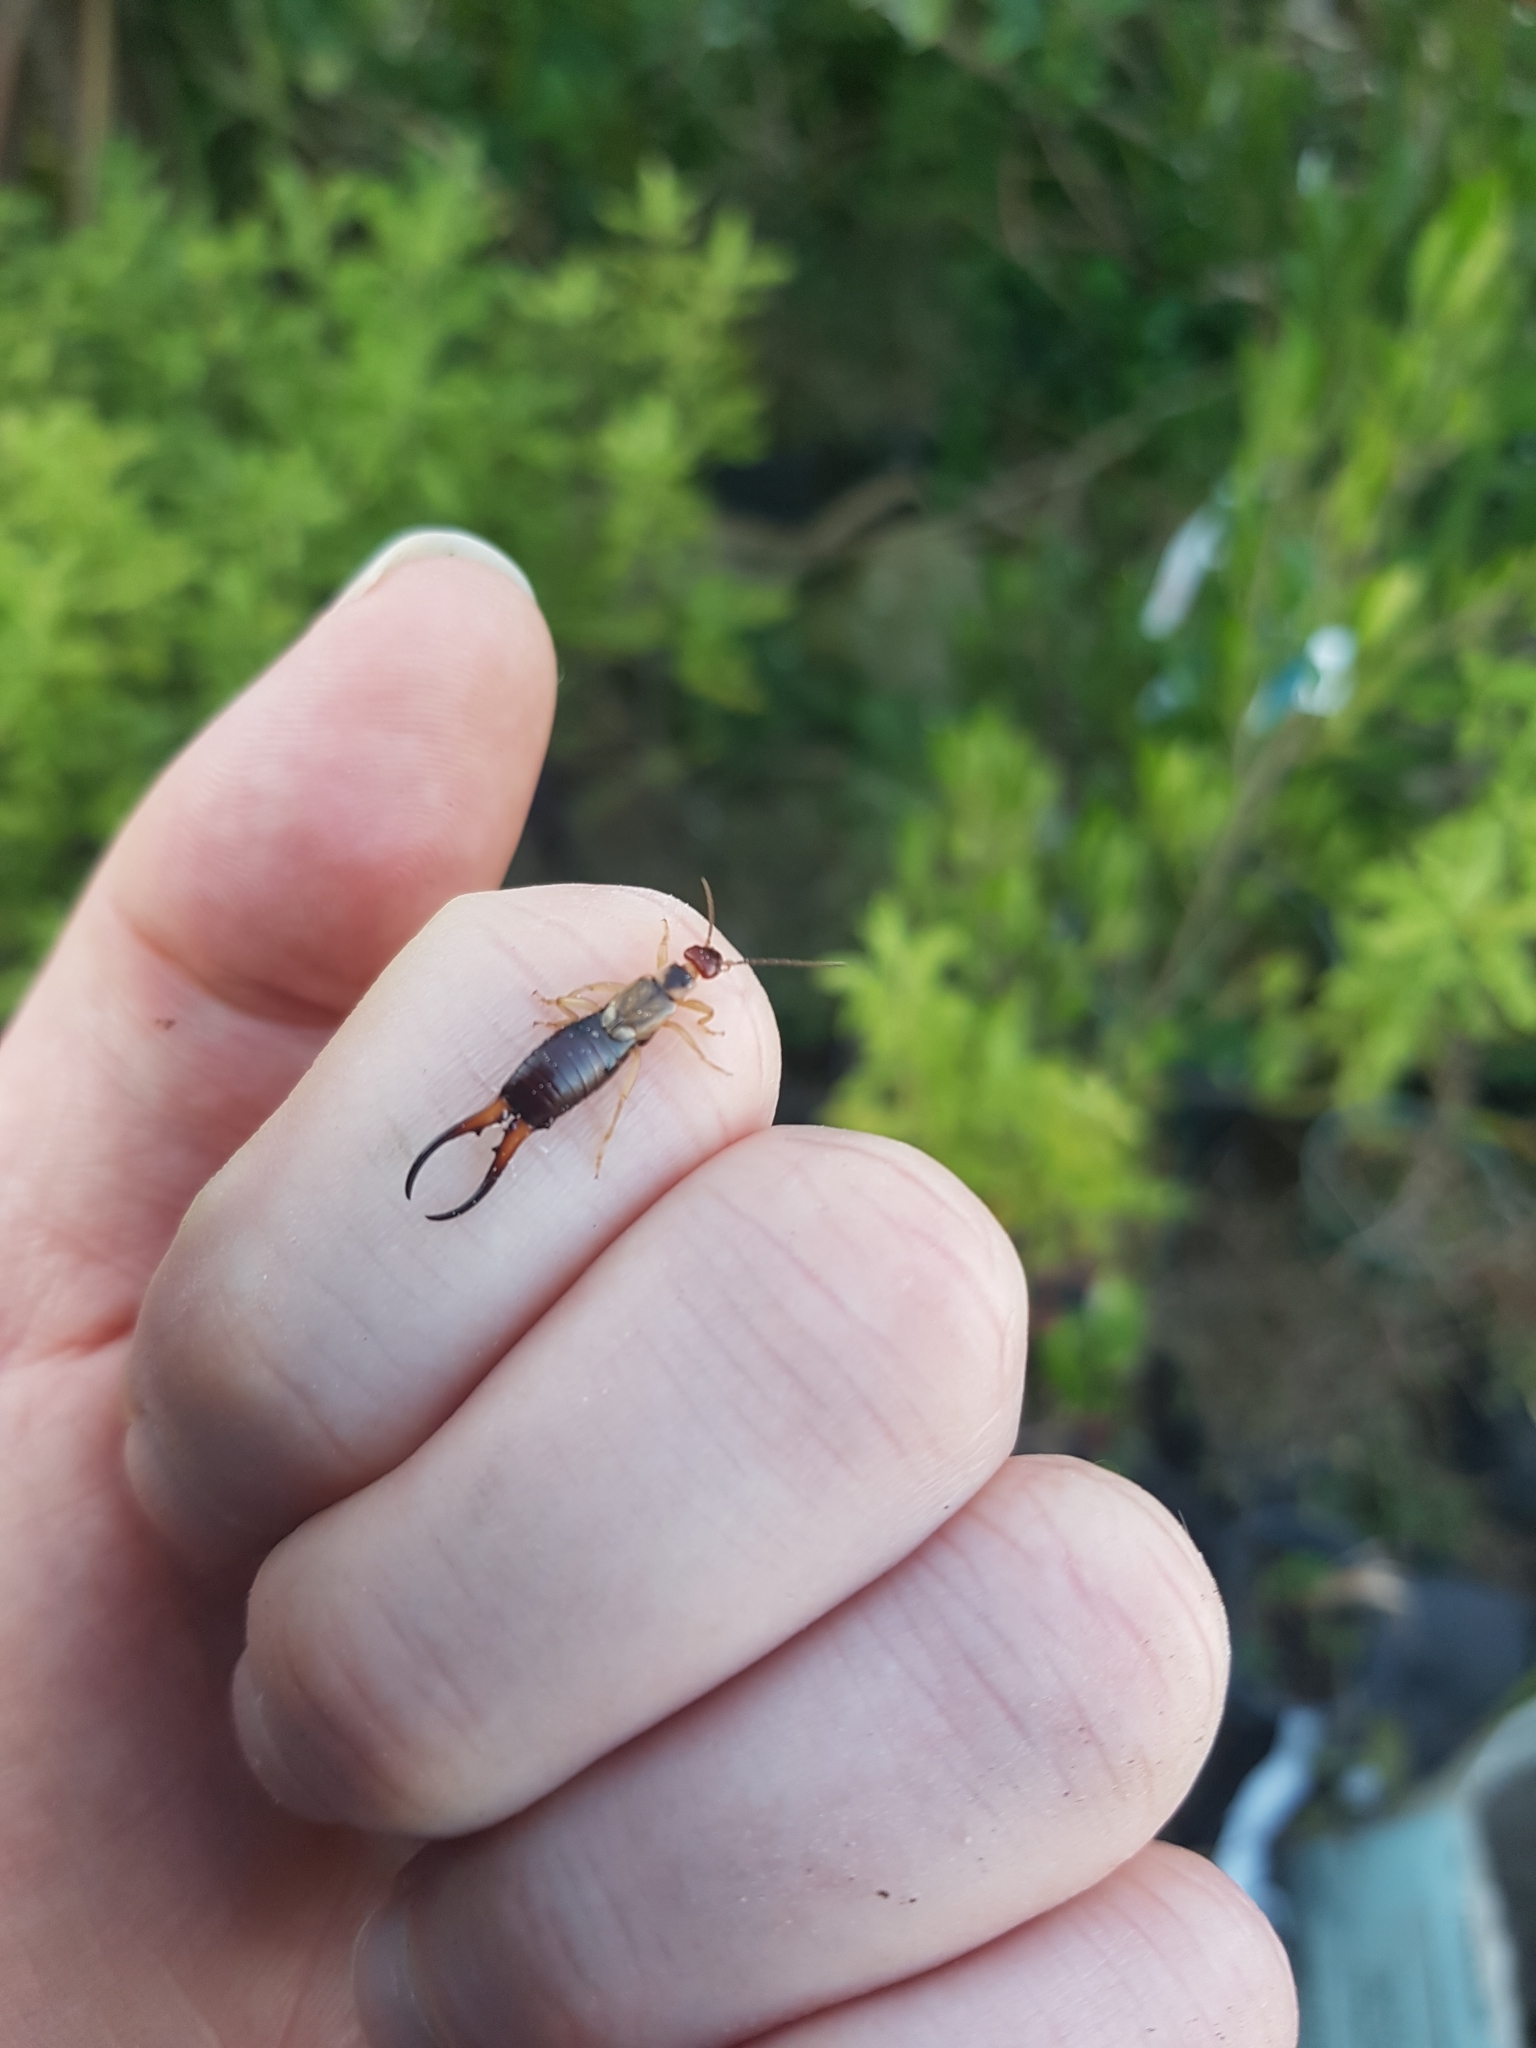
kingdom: Animalia
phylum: Arthropoda
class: Insecta
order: Dermaptera
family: Forficulidae
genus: Forficula
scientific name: Forficula
